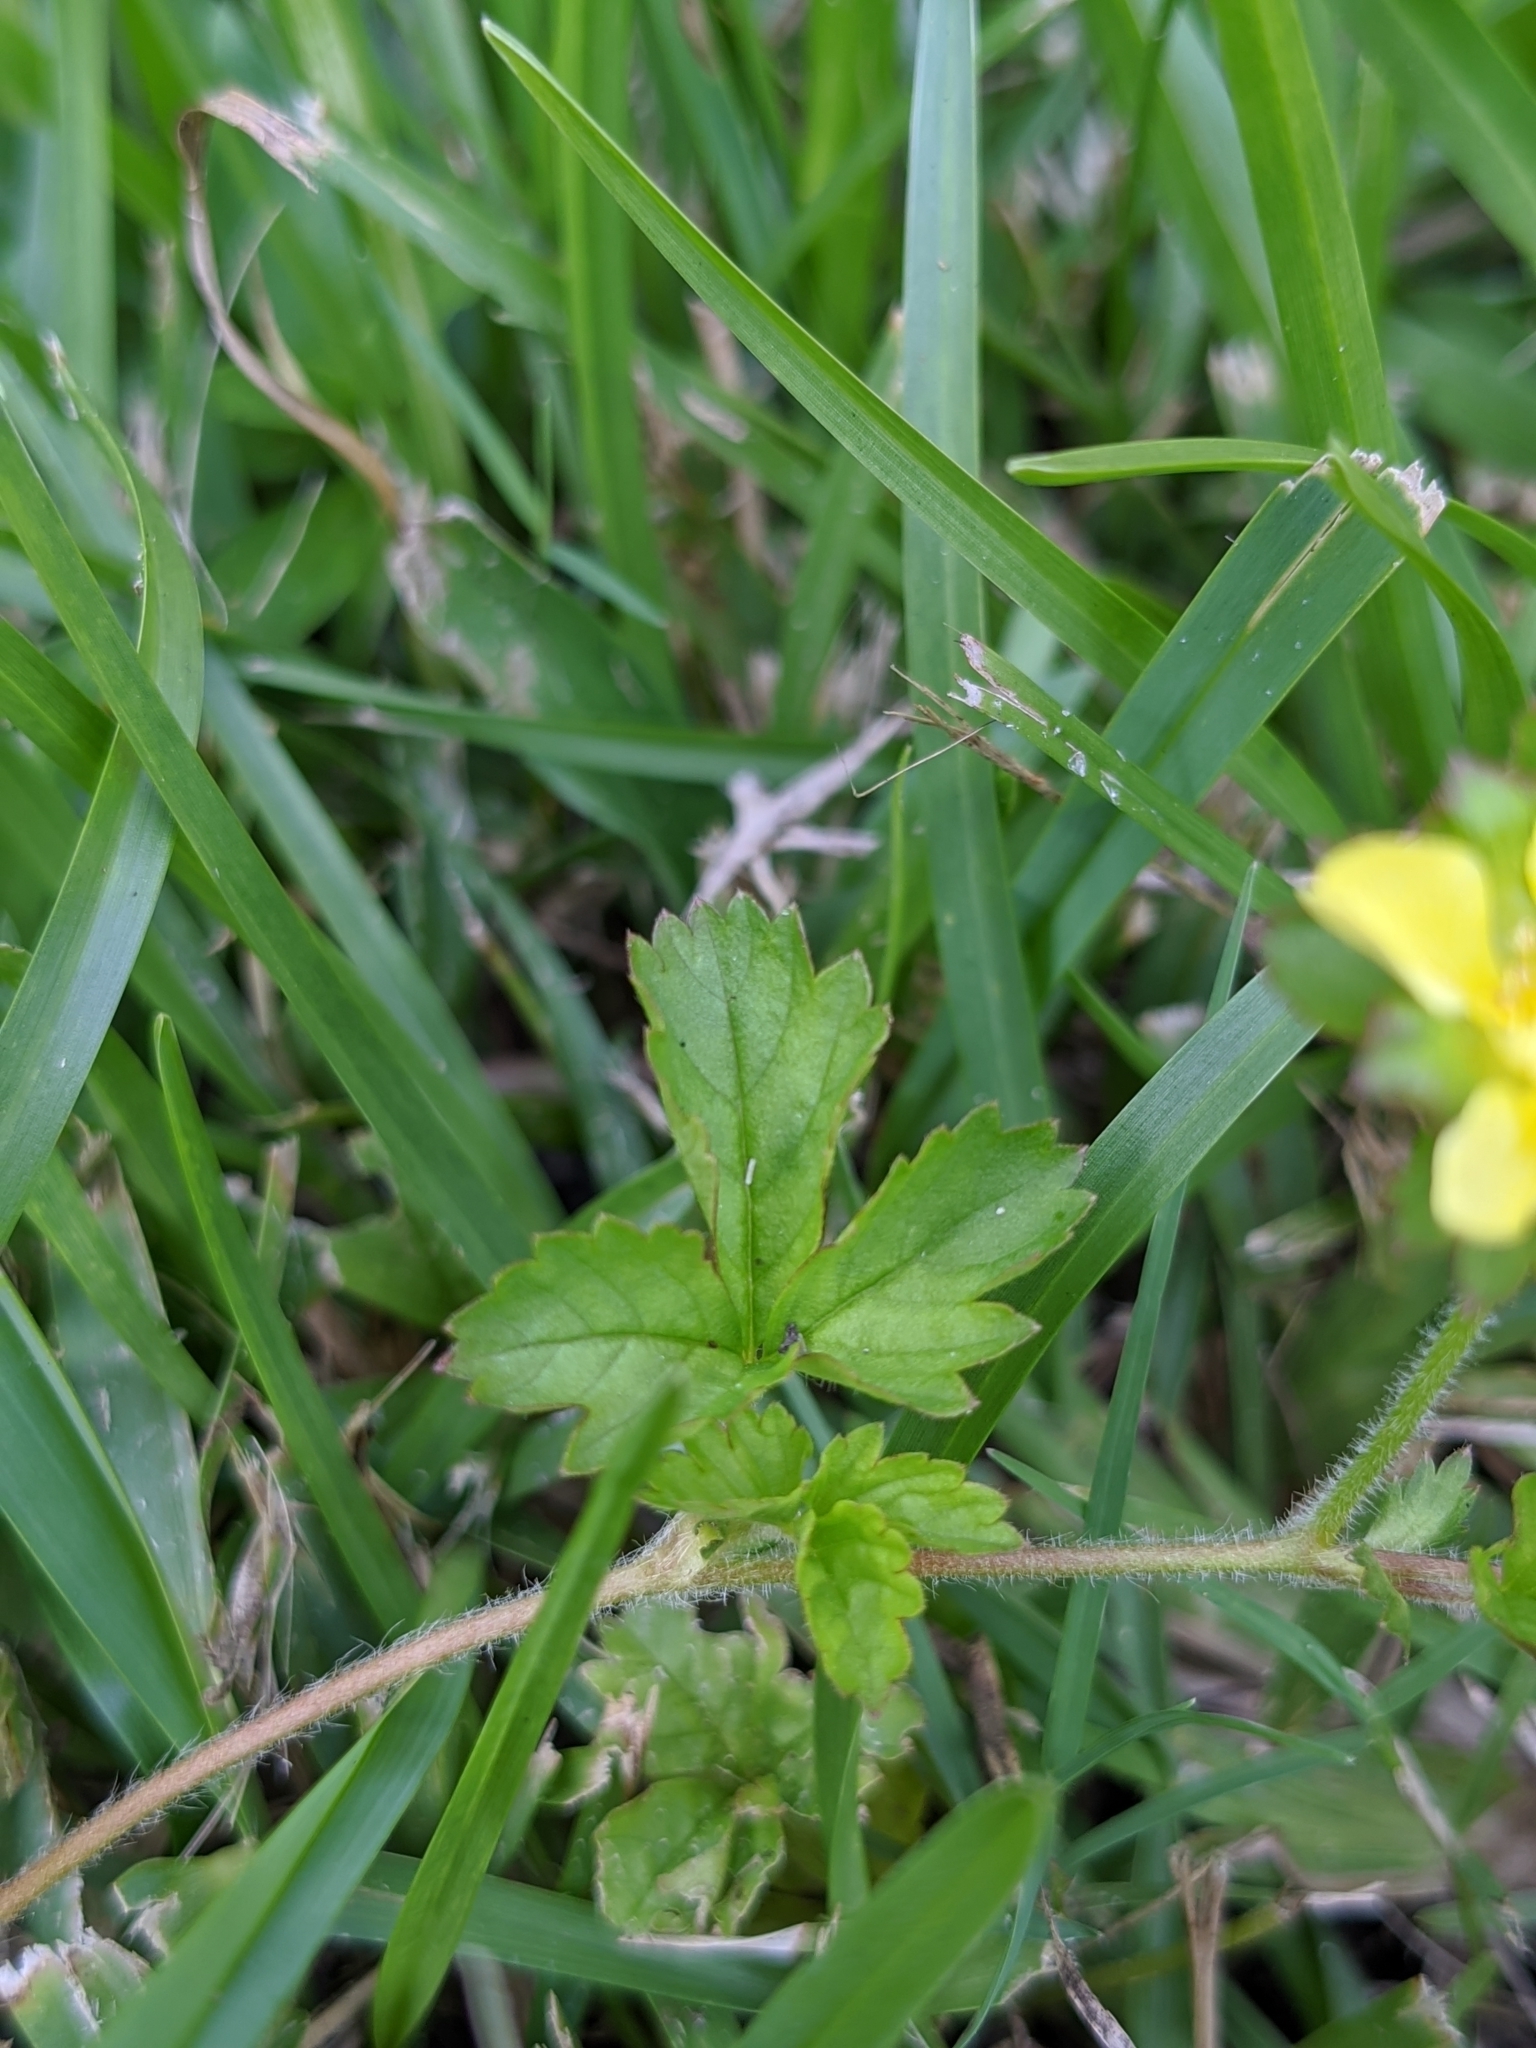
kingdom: Plantae
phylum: Tracheophyta
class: Magnoliopsida
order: Rosales
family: Rosaceae
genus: Potentilla
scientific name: Potentilla indica
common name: Yellow-flowered strawberry
